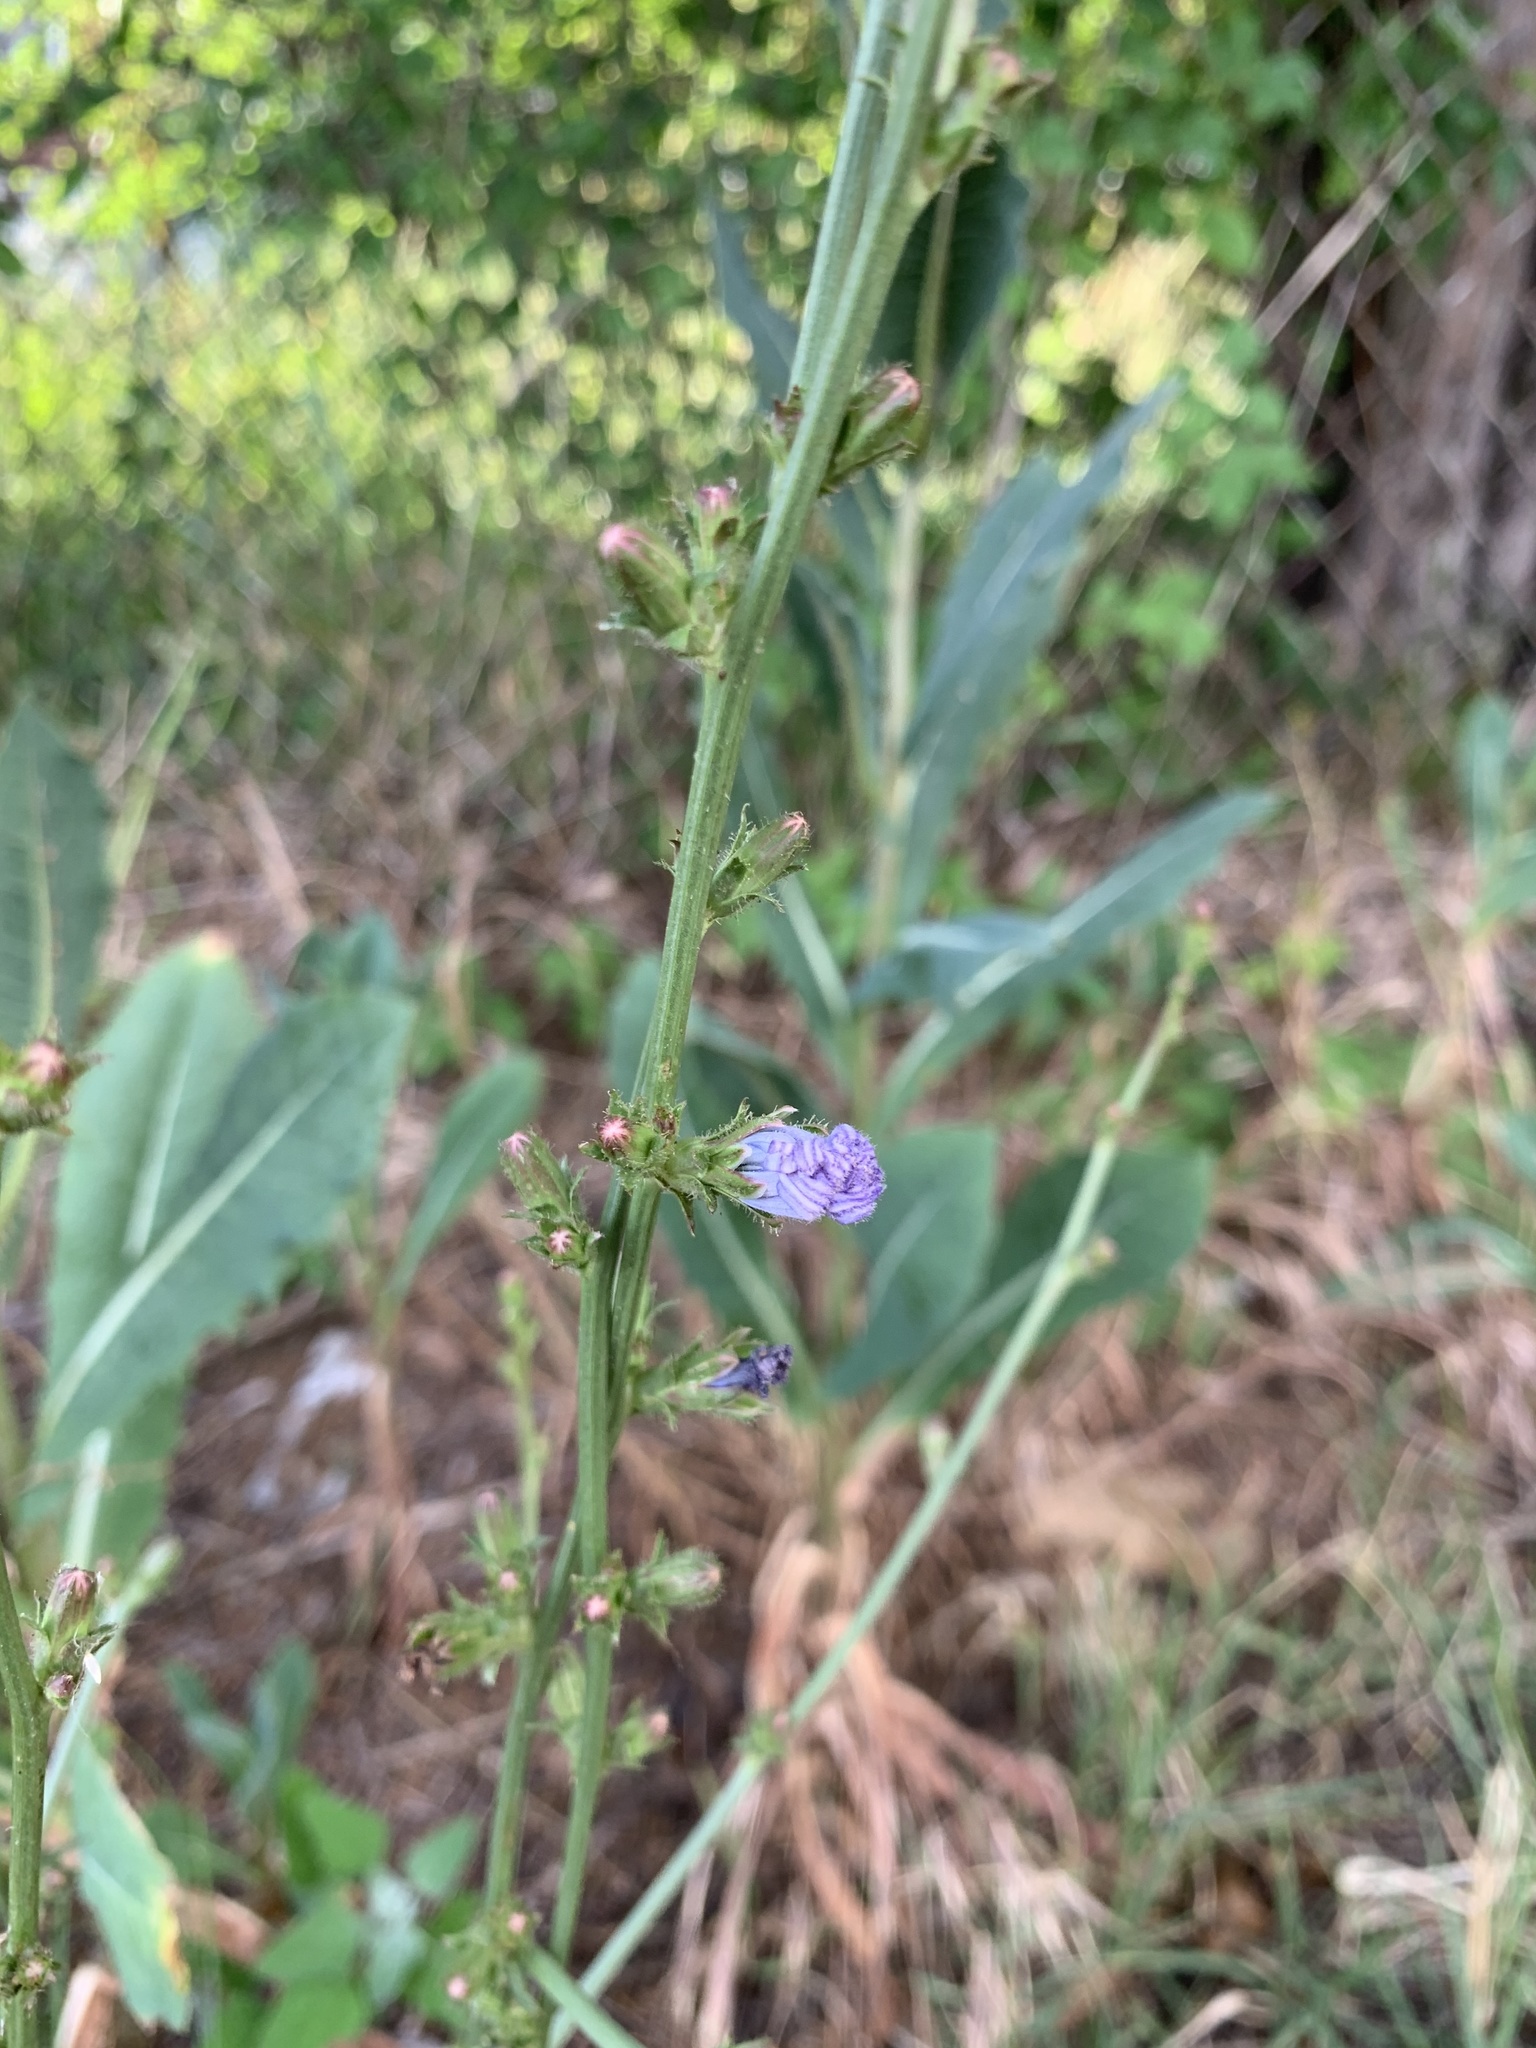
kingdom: Plantae
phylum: Tracheophyta
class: Magnoliopsida
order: Asterales
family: Asteraceae
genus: Cichorium
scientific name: Cichorium intybus
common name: Chicory
